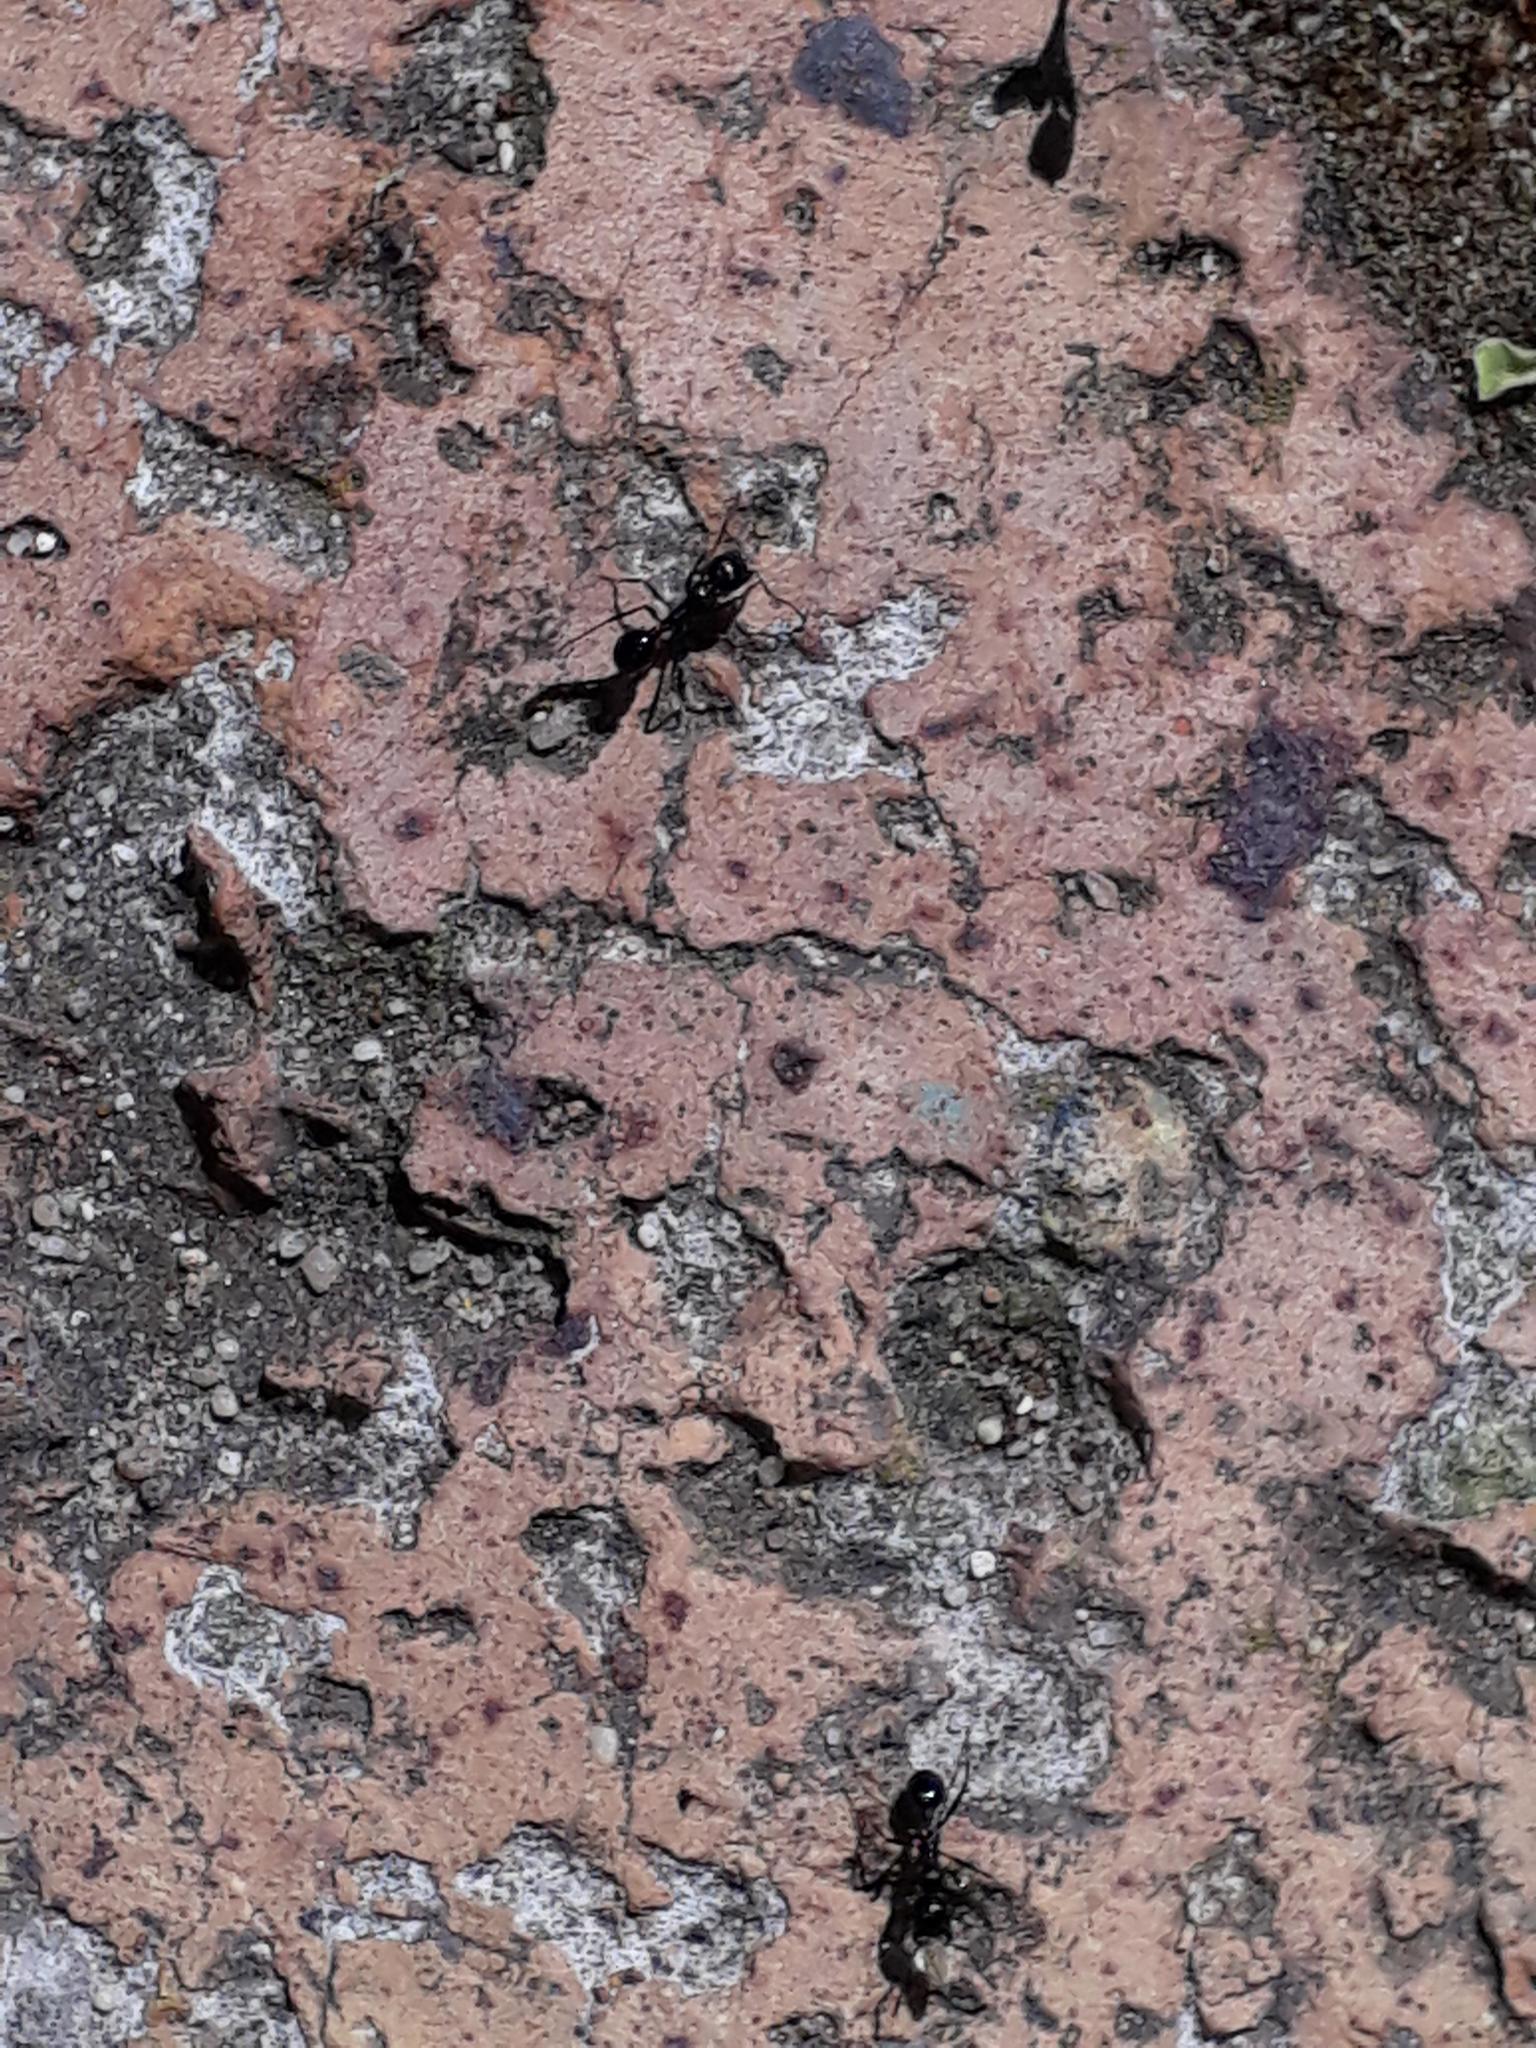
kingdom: Animalia
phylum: Arthropoda
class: Insecta
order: Hymenoptera
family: Formicidae
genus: Messor
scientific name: Messor capensis
